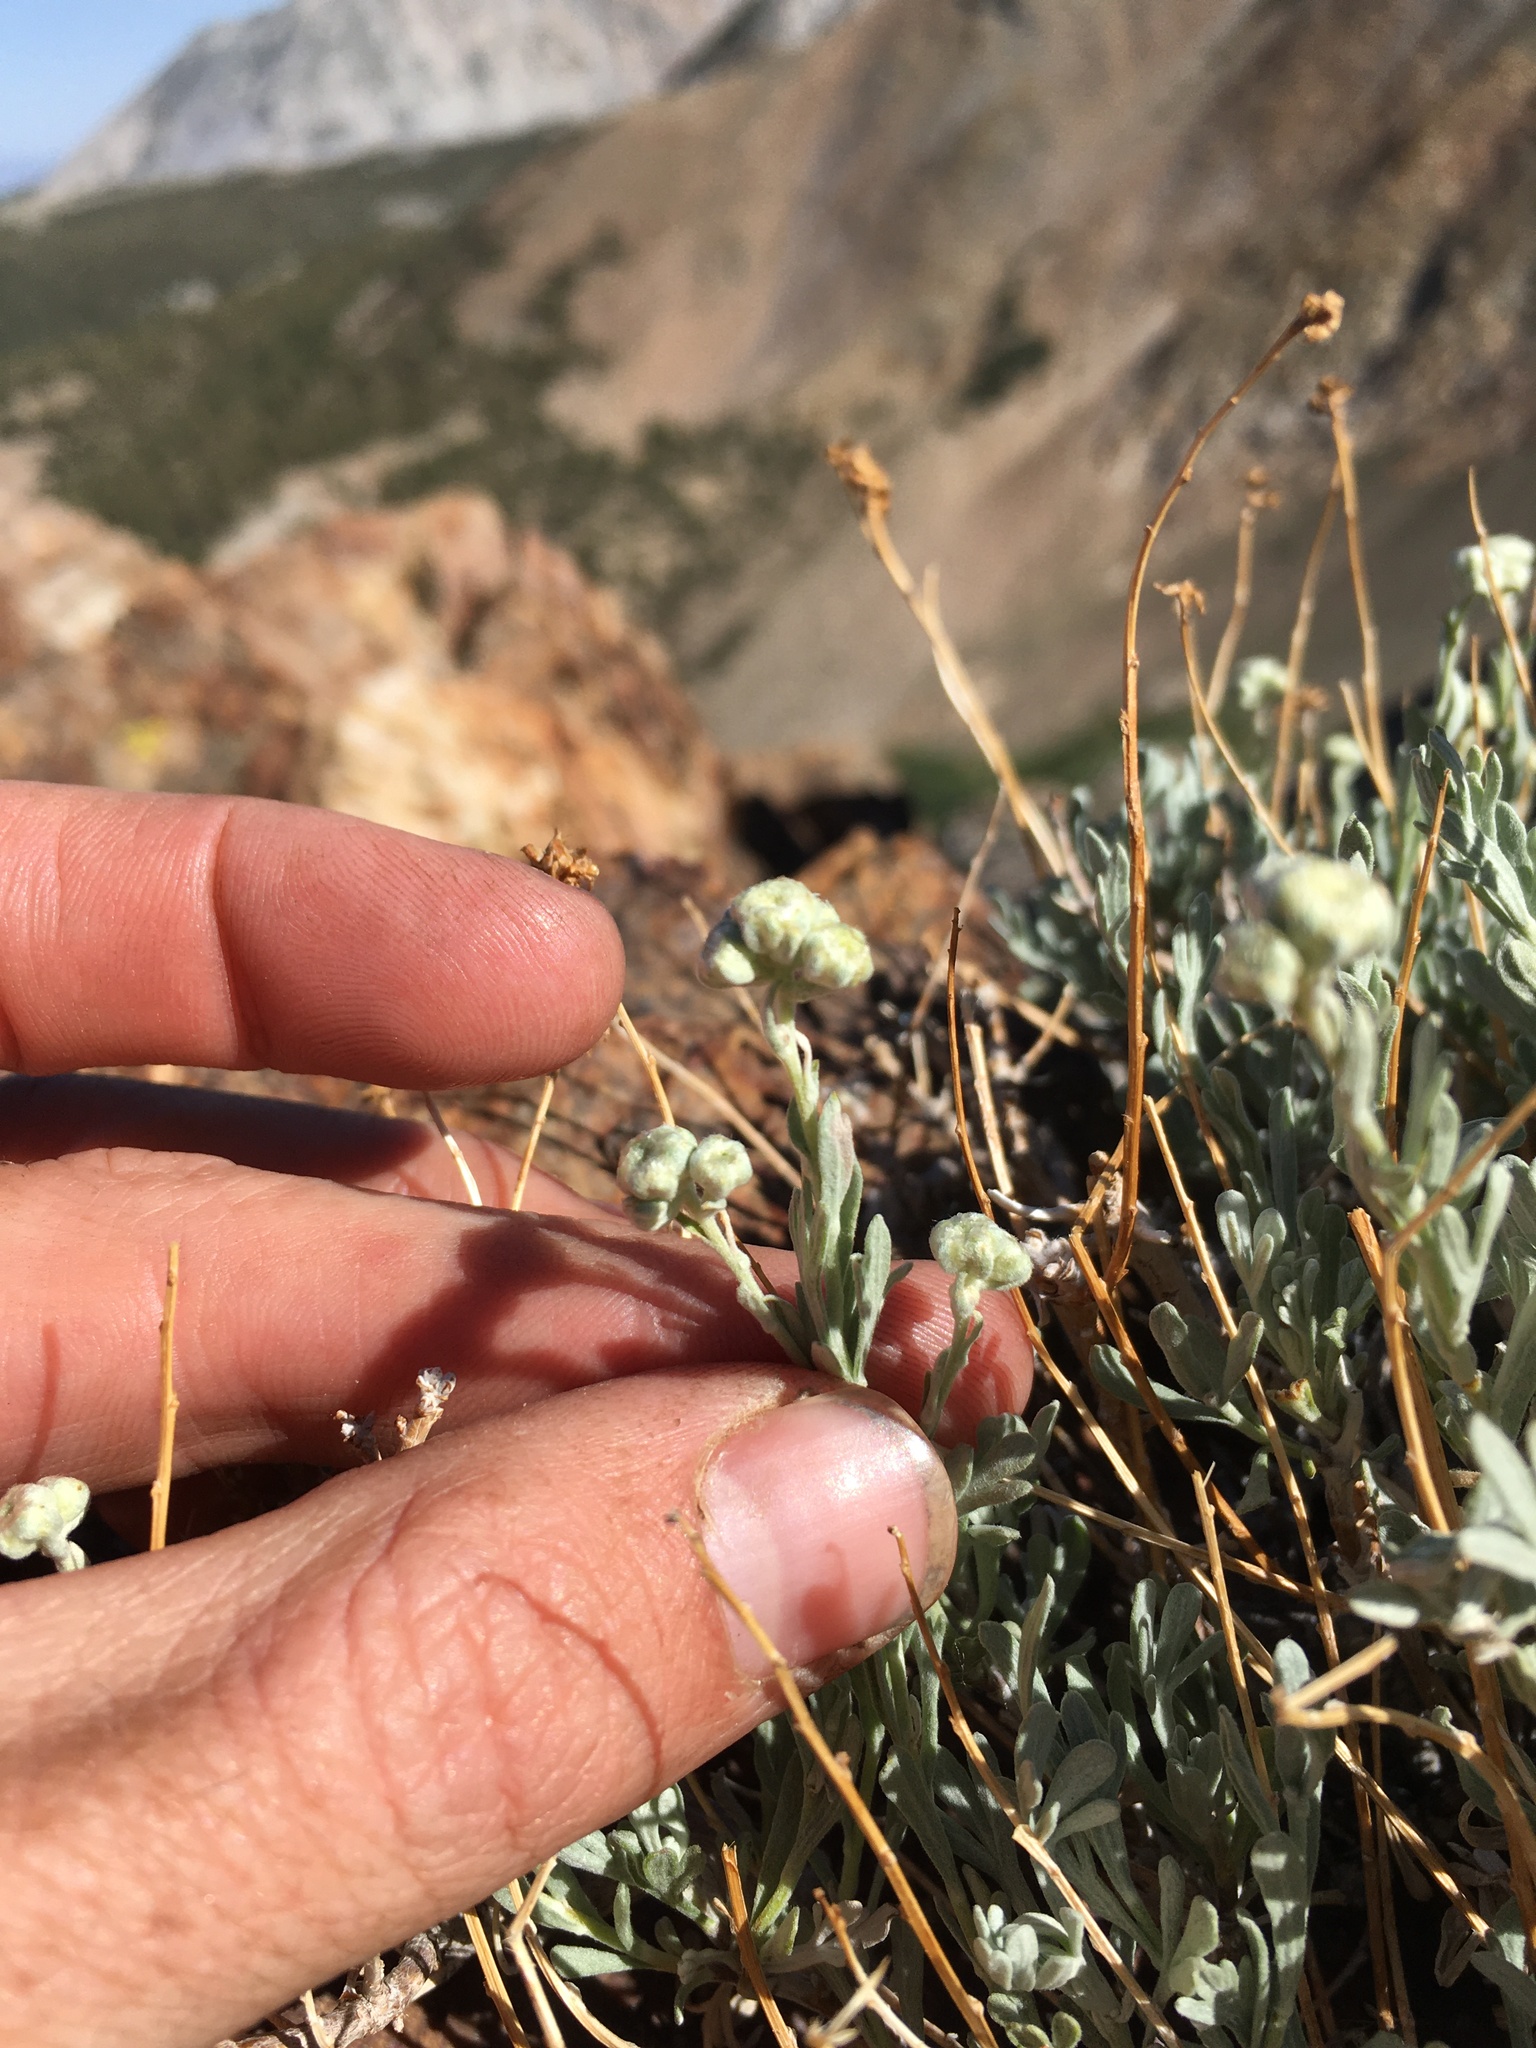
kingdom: Plantae
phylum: Tracheophyta
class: Magnoliopsida
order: Asterales
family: Asteraceae
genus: Artemisia
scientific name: Artemisia albicans
